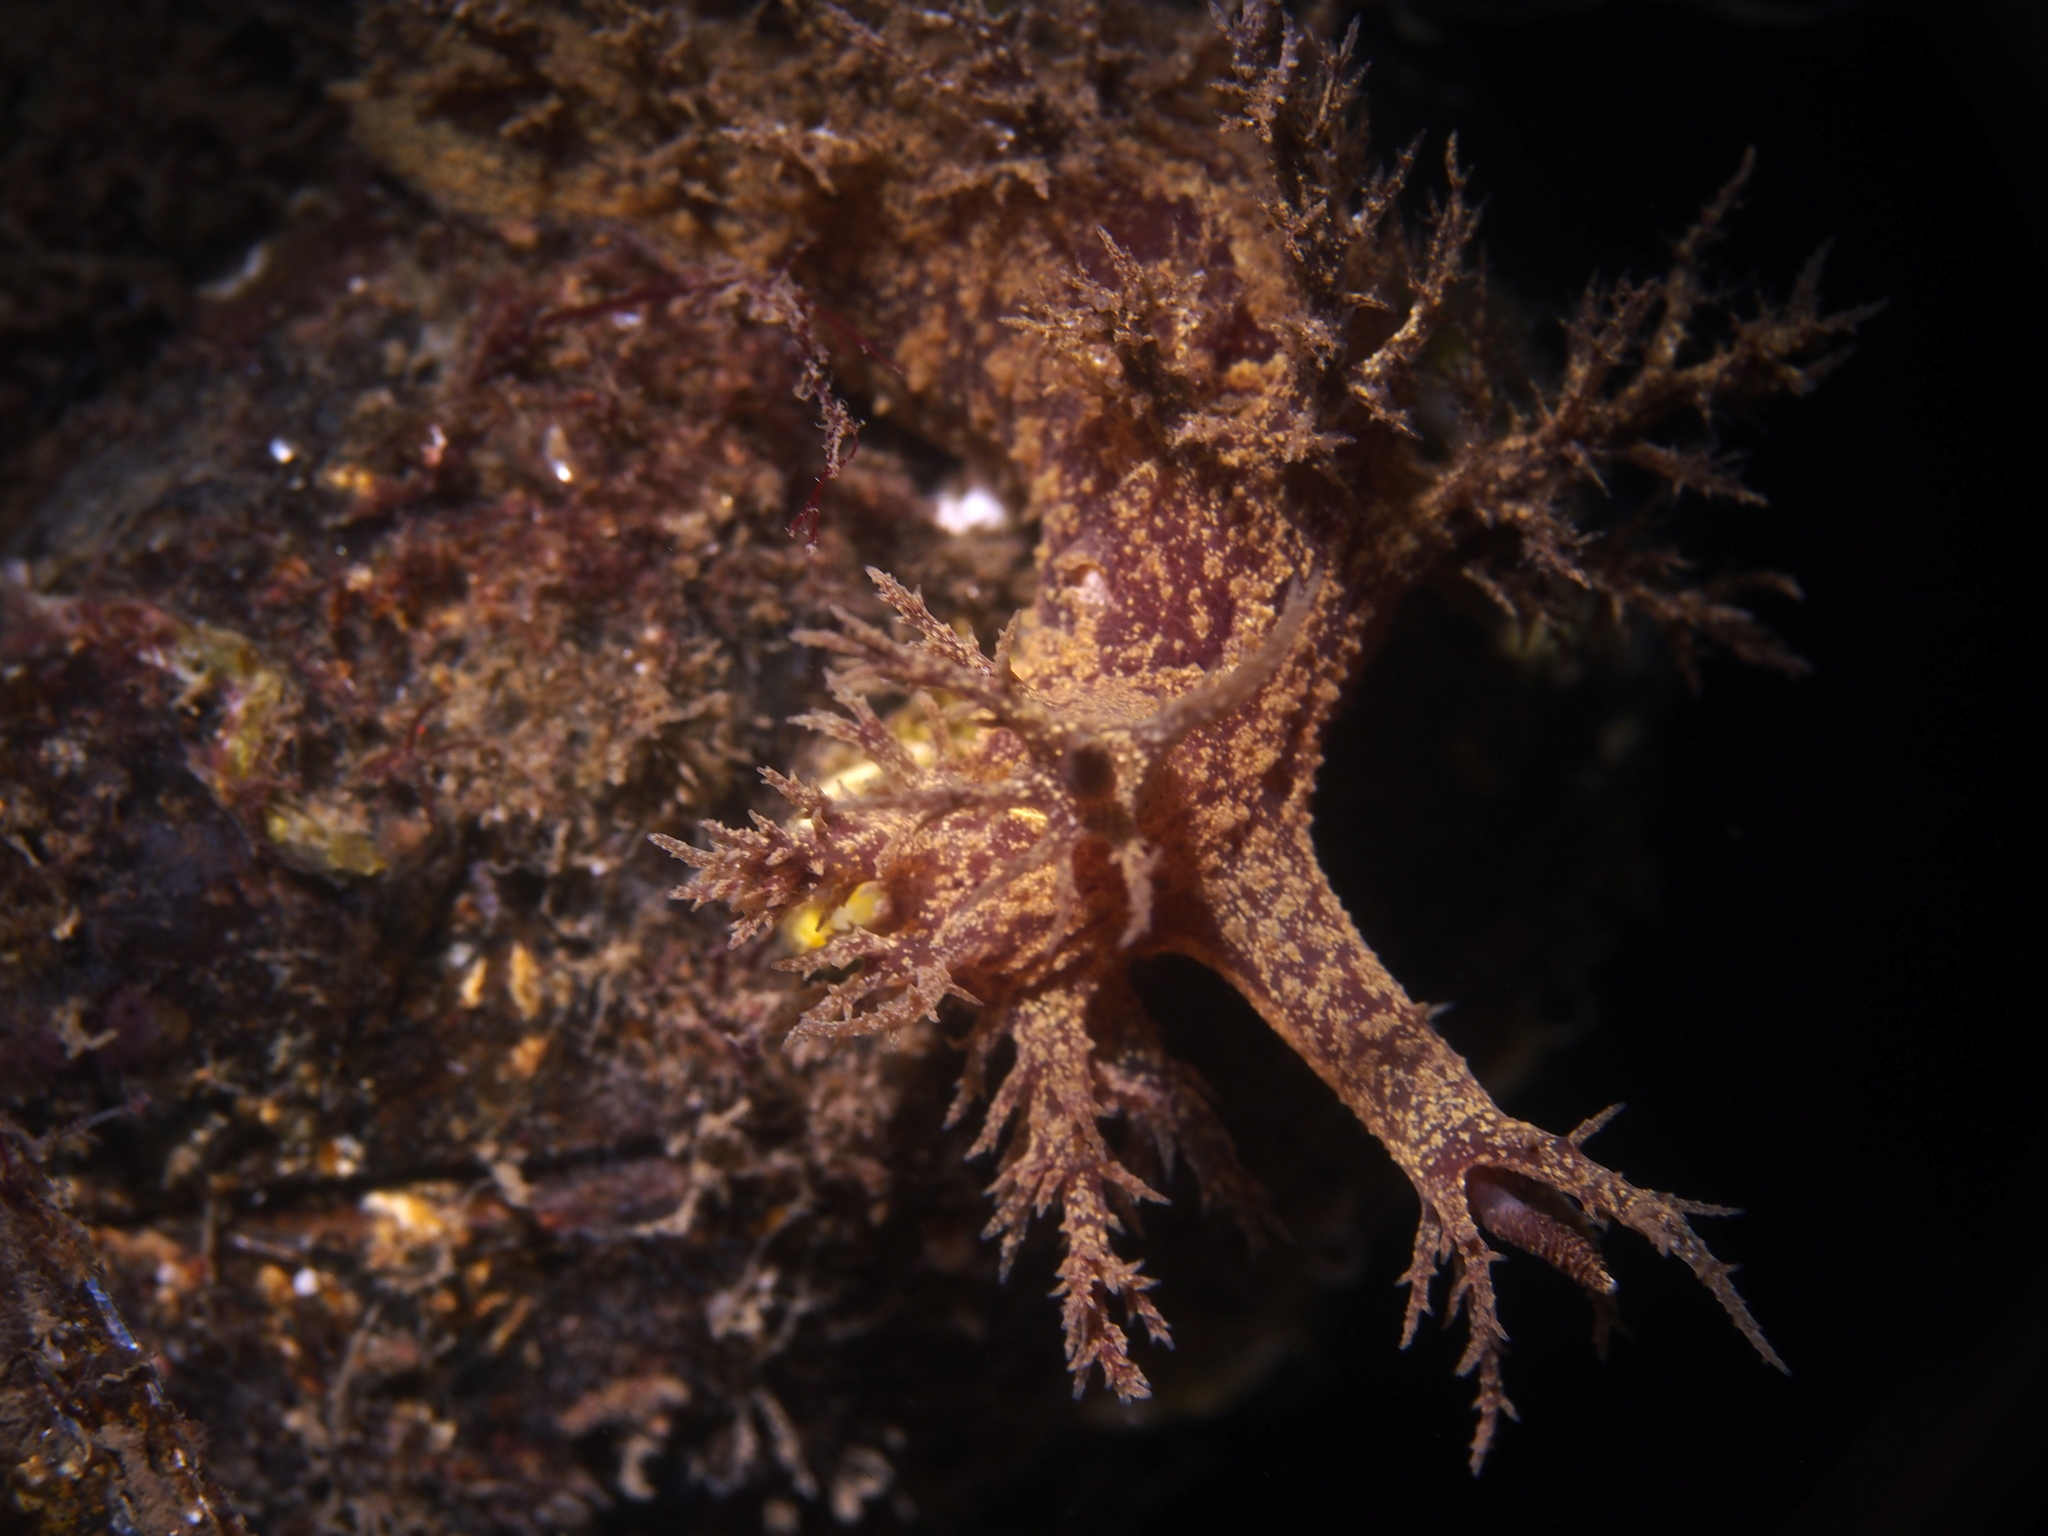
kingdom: Animalia
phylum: Mollusca
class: Gastropoda
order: Nudibranchia
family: Dendronotidae
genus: Dendronotus
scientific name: Dendronotus europaeus
